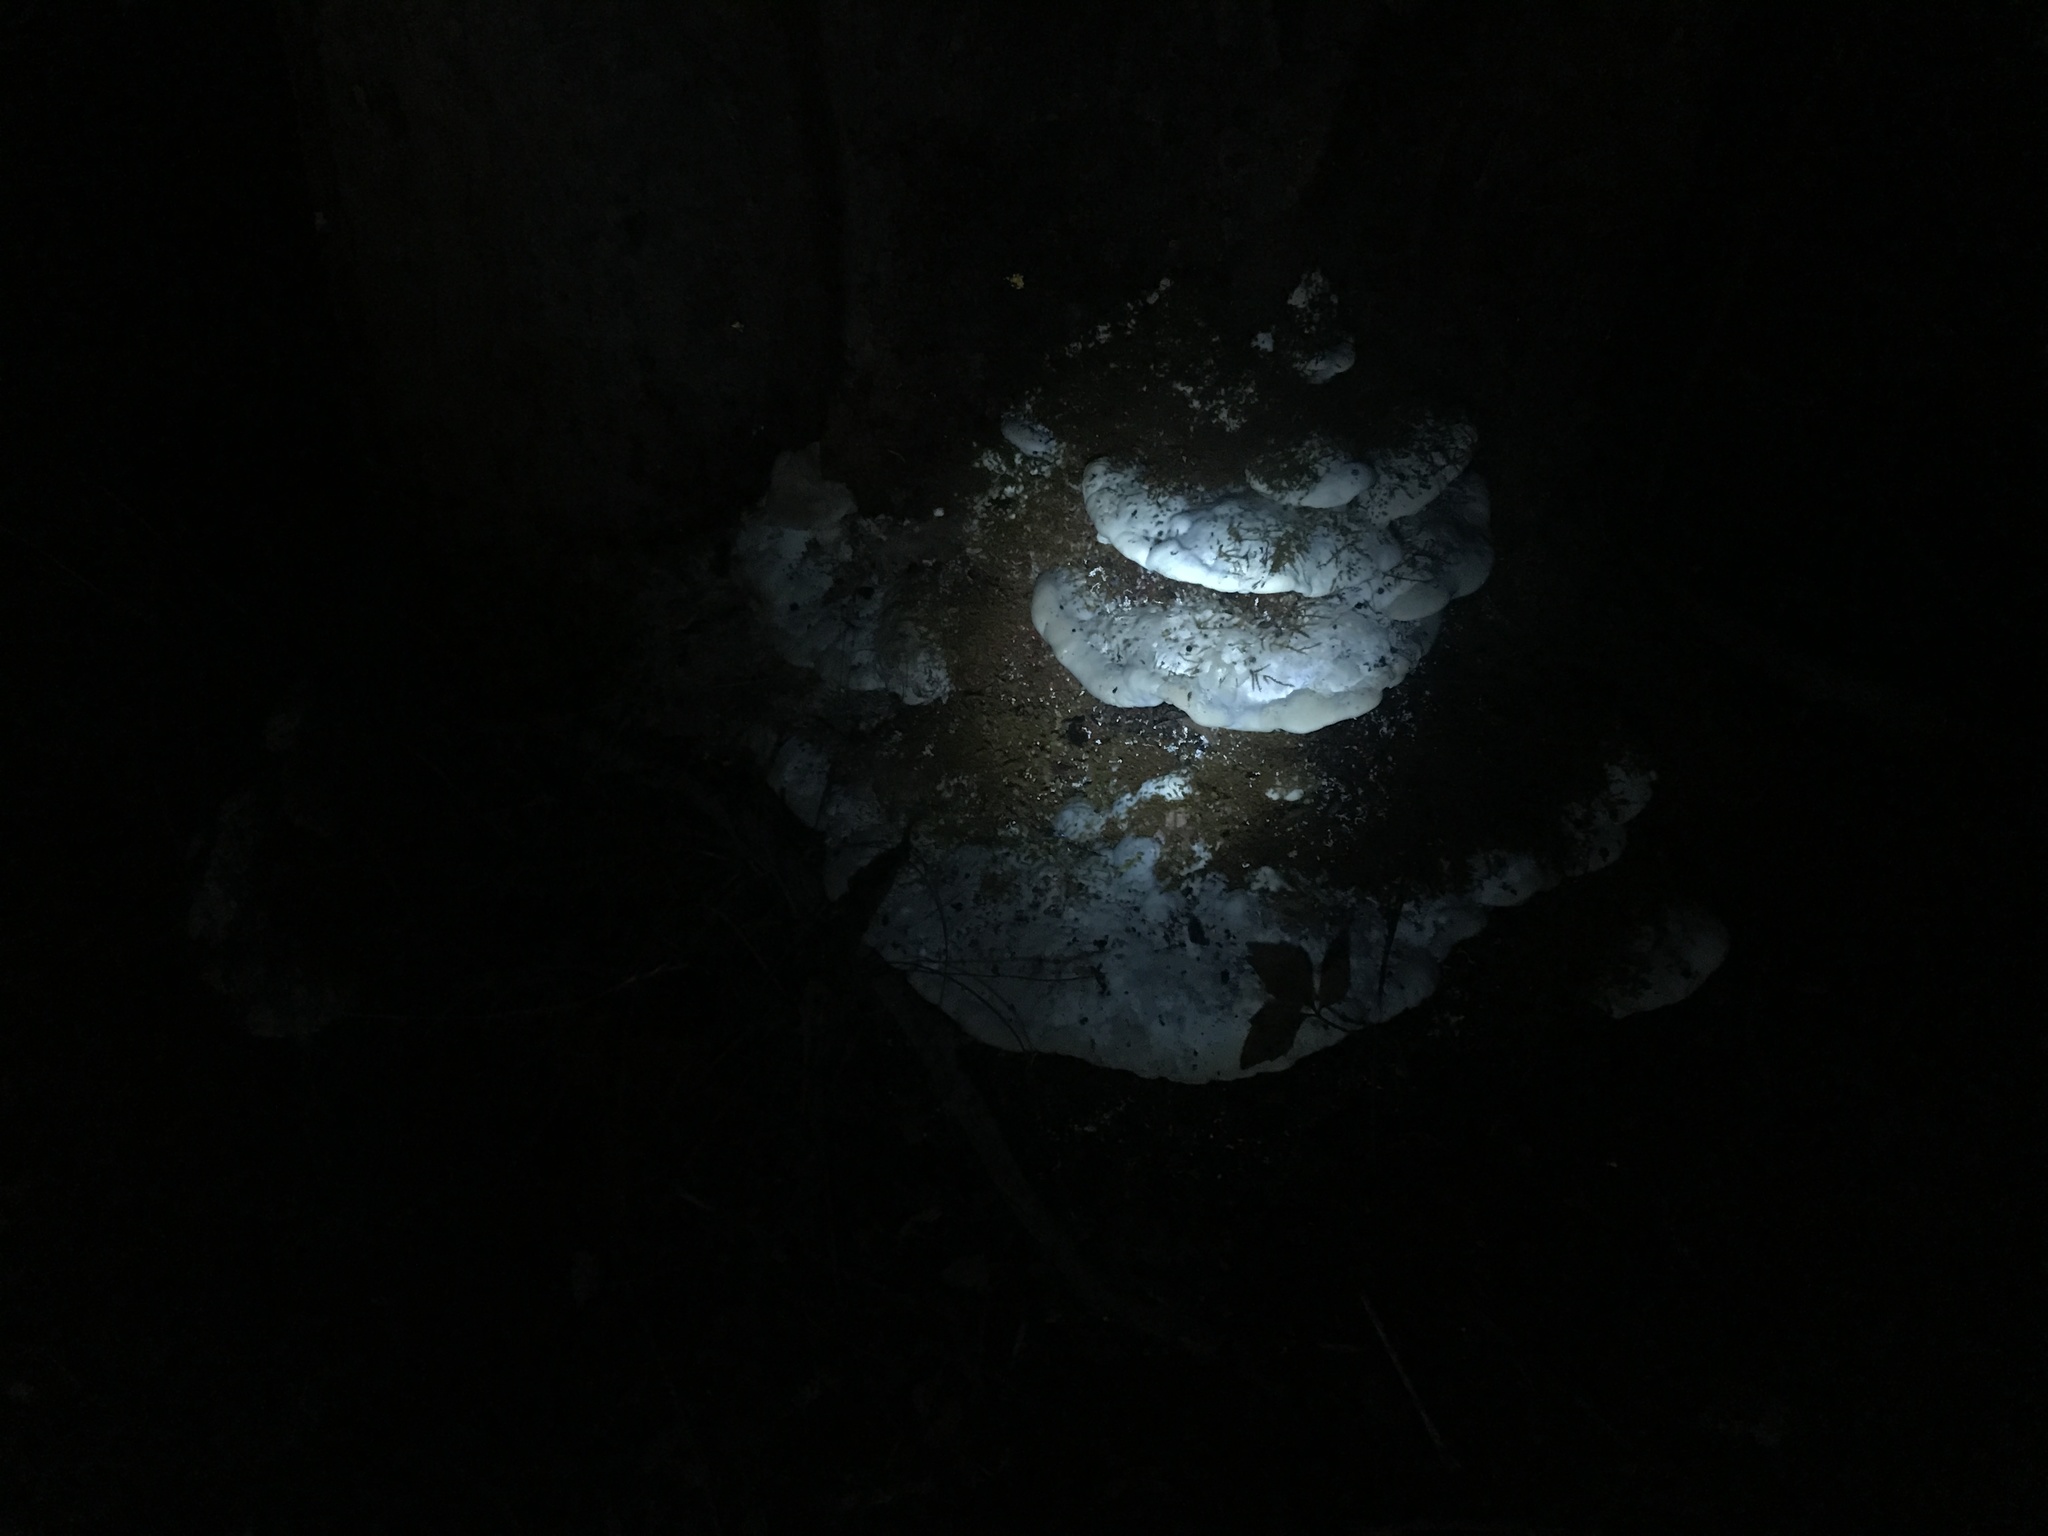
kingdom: Fungi
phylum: Basidiomycota
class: Agaricomycetes
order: Hymenochaetales
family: Oxyporaceae
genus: Oxyporus
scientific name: Oxyporus populinus
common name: Poplar bracket
